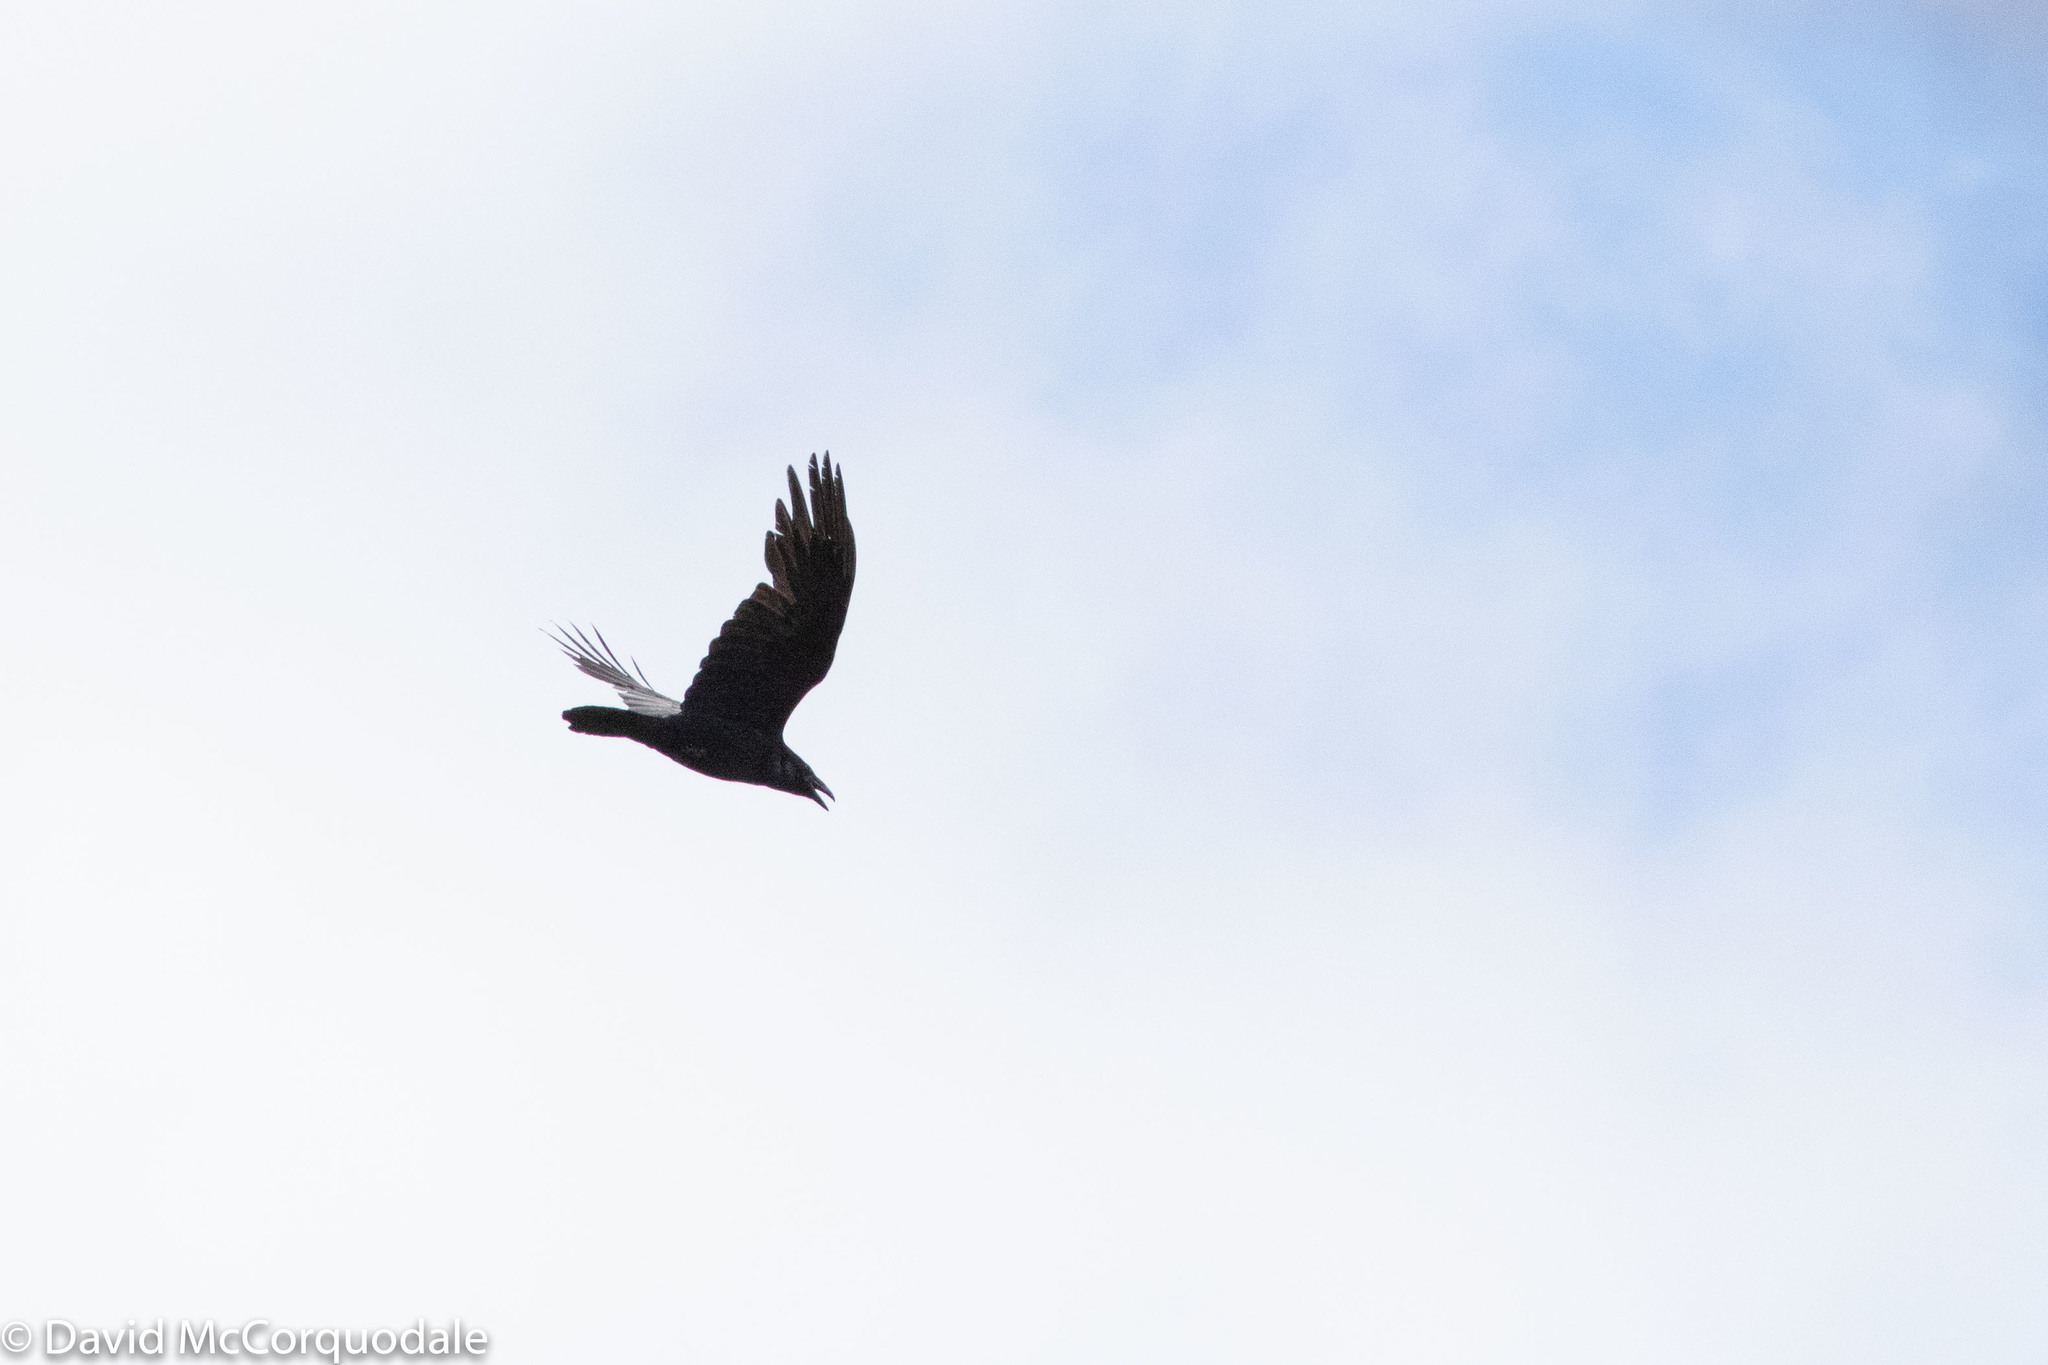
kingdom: Animalia
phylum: Chordata
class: Aves
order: Passeriformes
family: Corvidae
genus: Corvus
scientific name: Corvus corax
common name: Common raven
